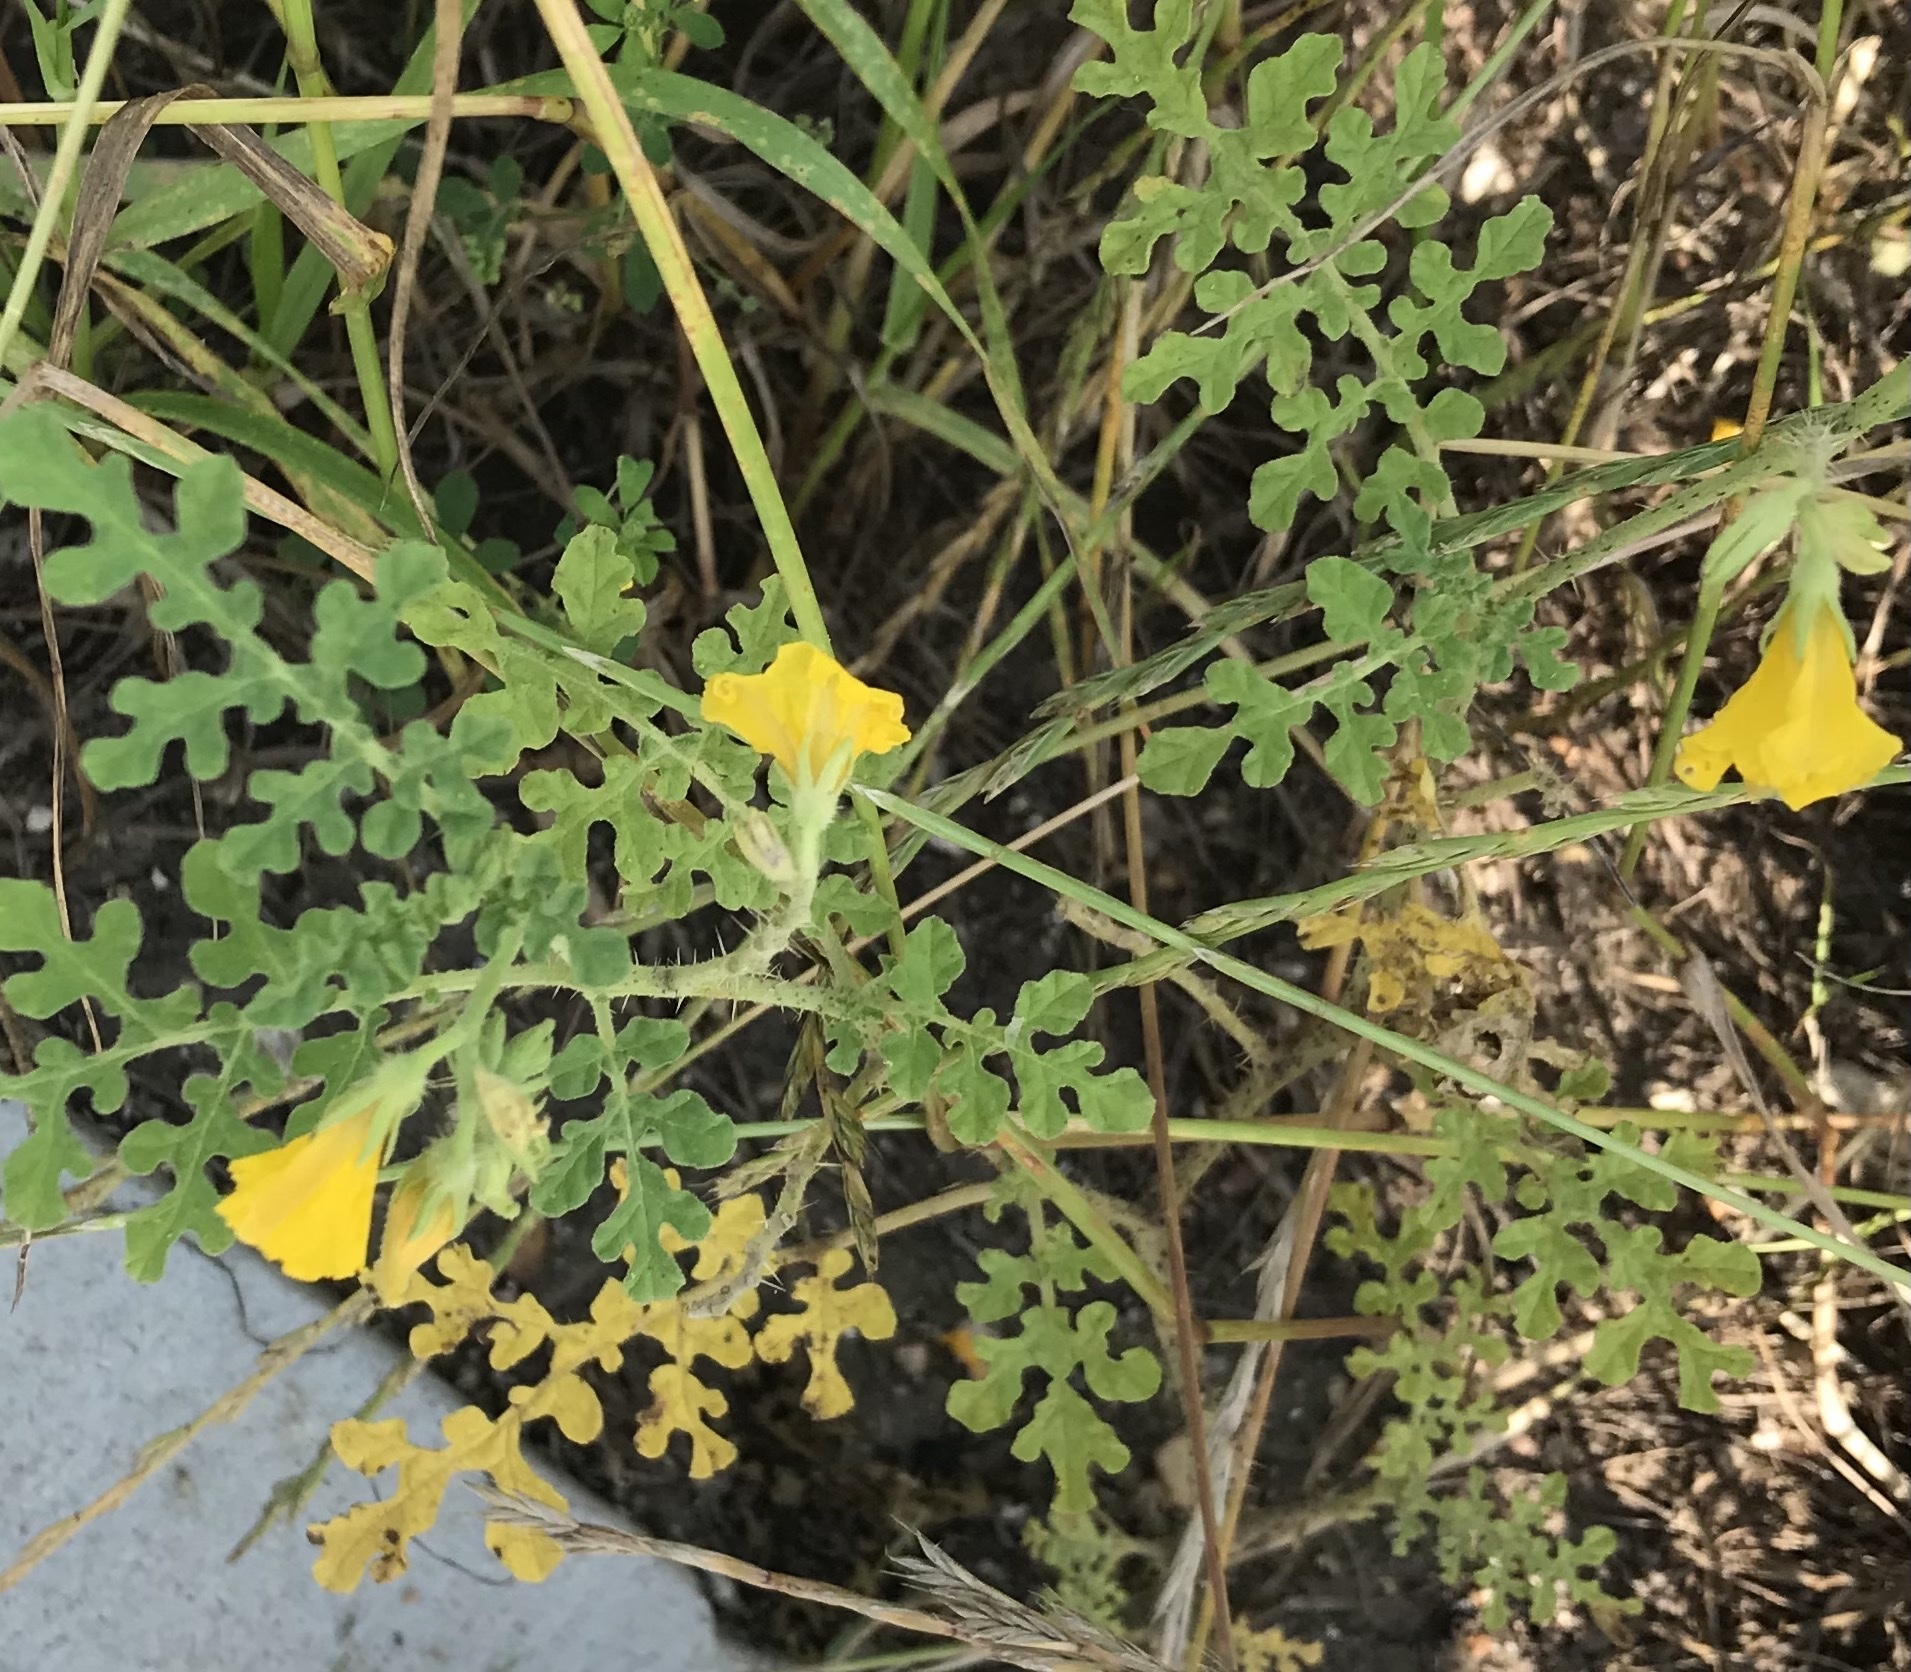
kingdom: Plantae
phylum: Tracheophyta
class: Magnoliopsida
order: Solanales
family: Solanaceae
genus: Solanum
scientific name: Solanum angustifolium
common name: Buffalobur nightshade
